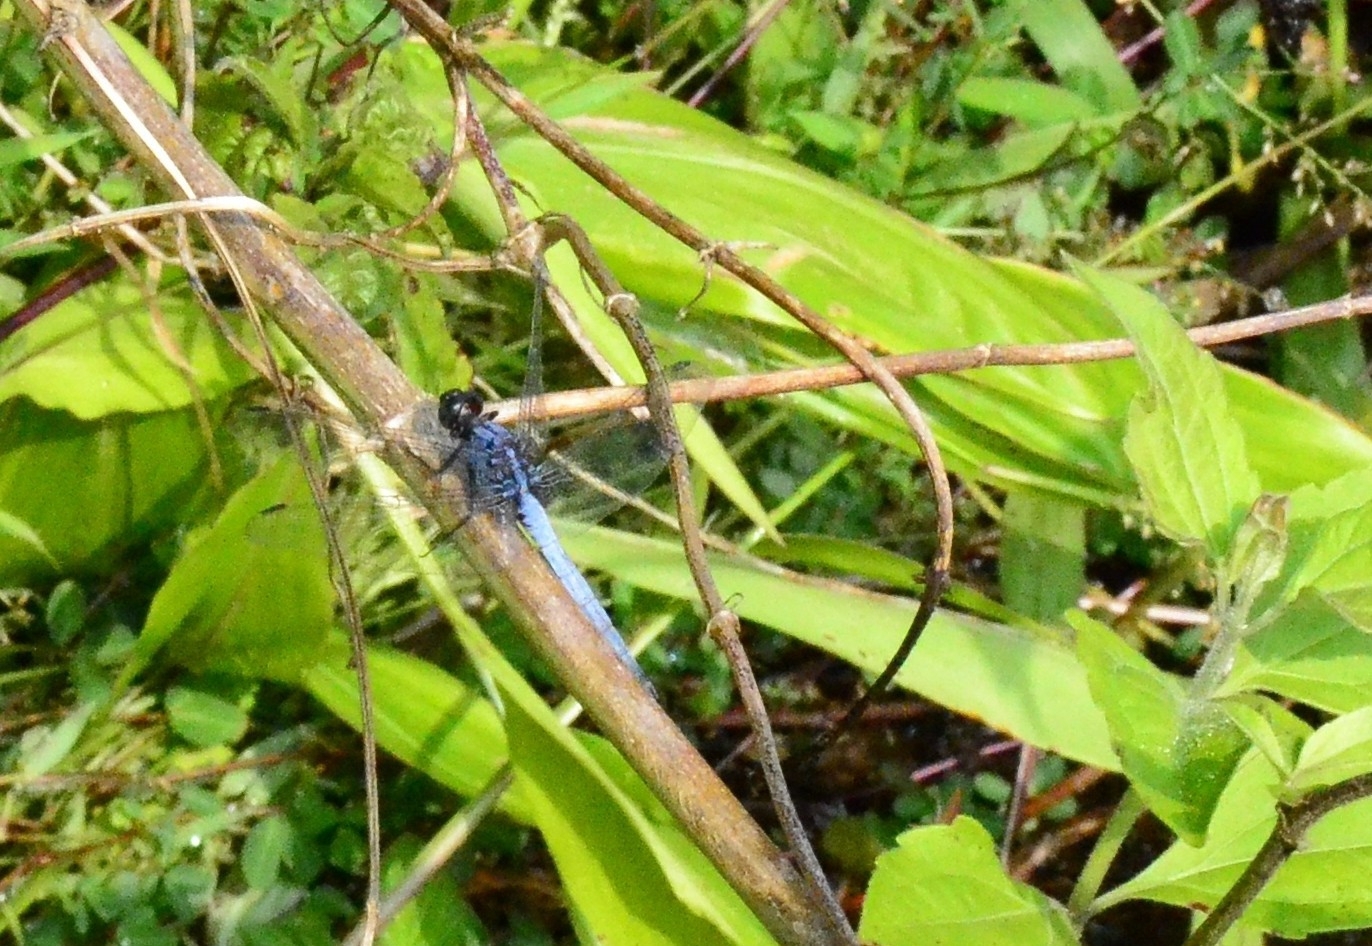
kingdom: Animalia
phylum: Arthropoda
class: Insecta
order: Odonata
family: Libellulidae
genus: Orthetrum
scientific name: Orthetrum glaucum
